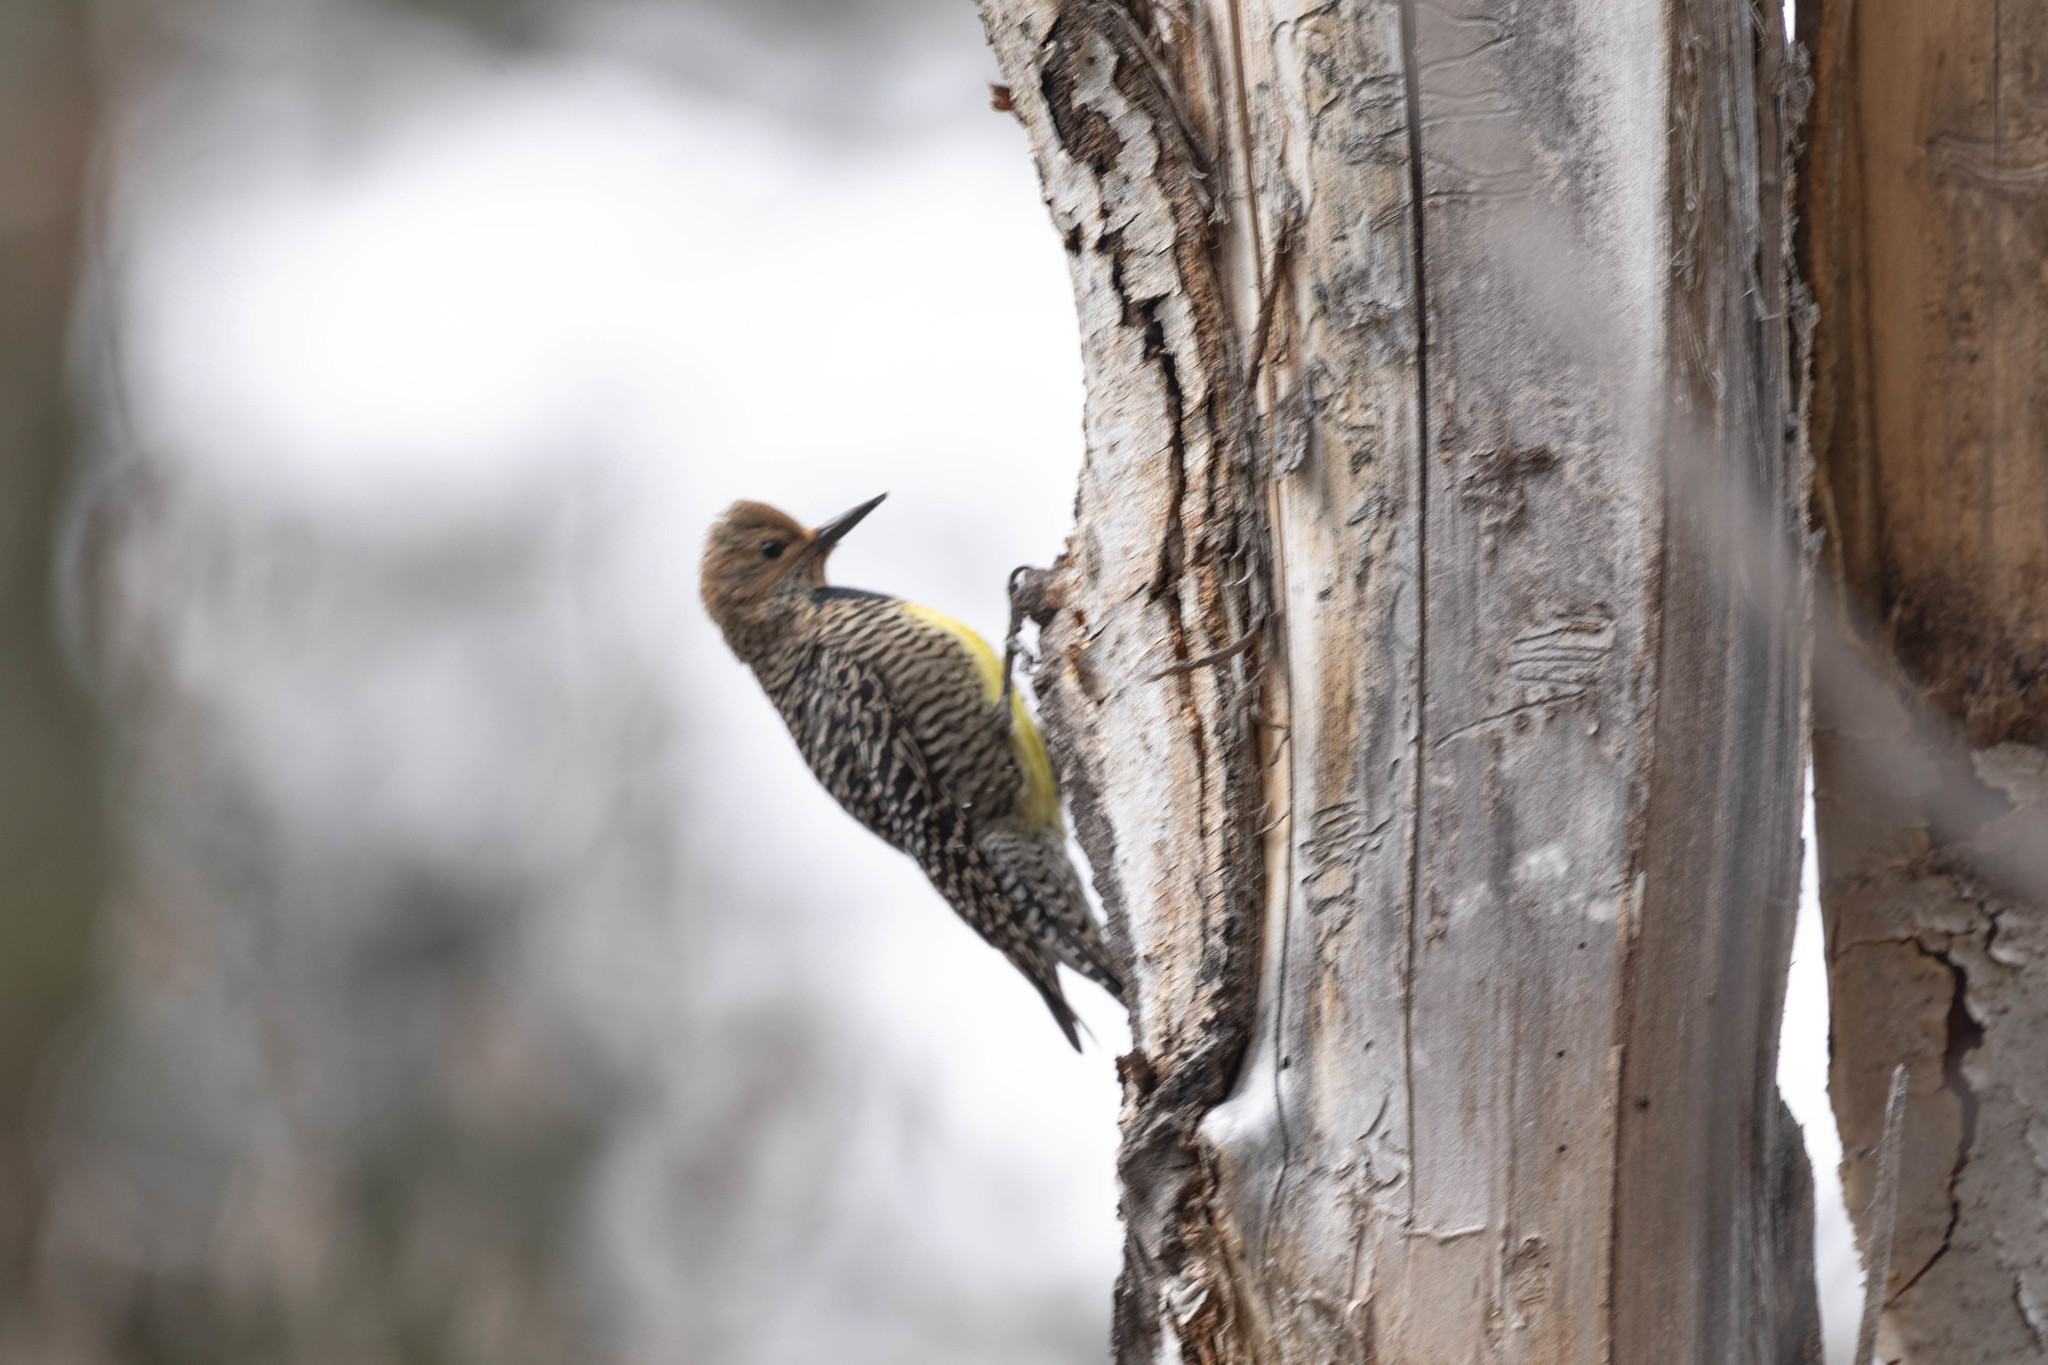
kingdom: Animalia
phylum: Chordata
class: Aves
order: Piciformes
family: Picidae
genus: Sphyrapicus
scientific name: Sphyrapicus thyroideus
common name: Williamson's sapsucker
